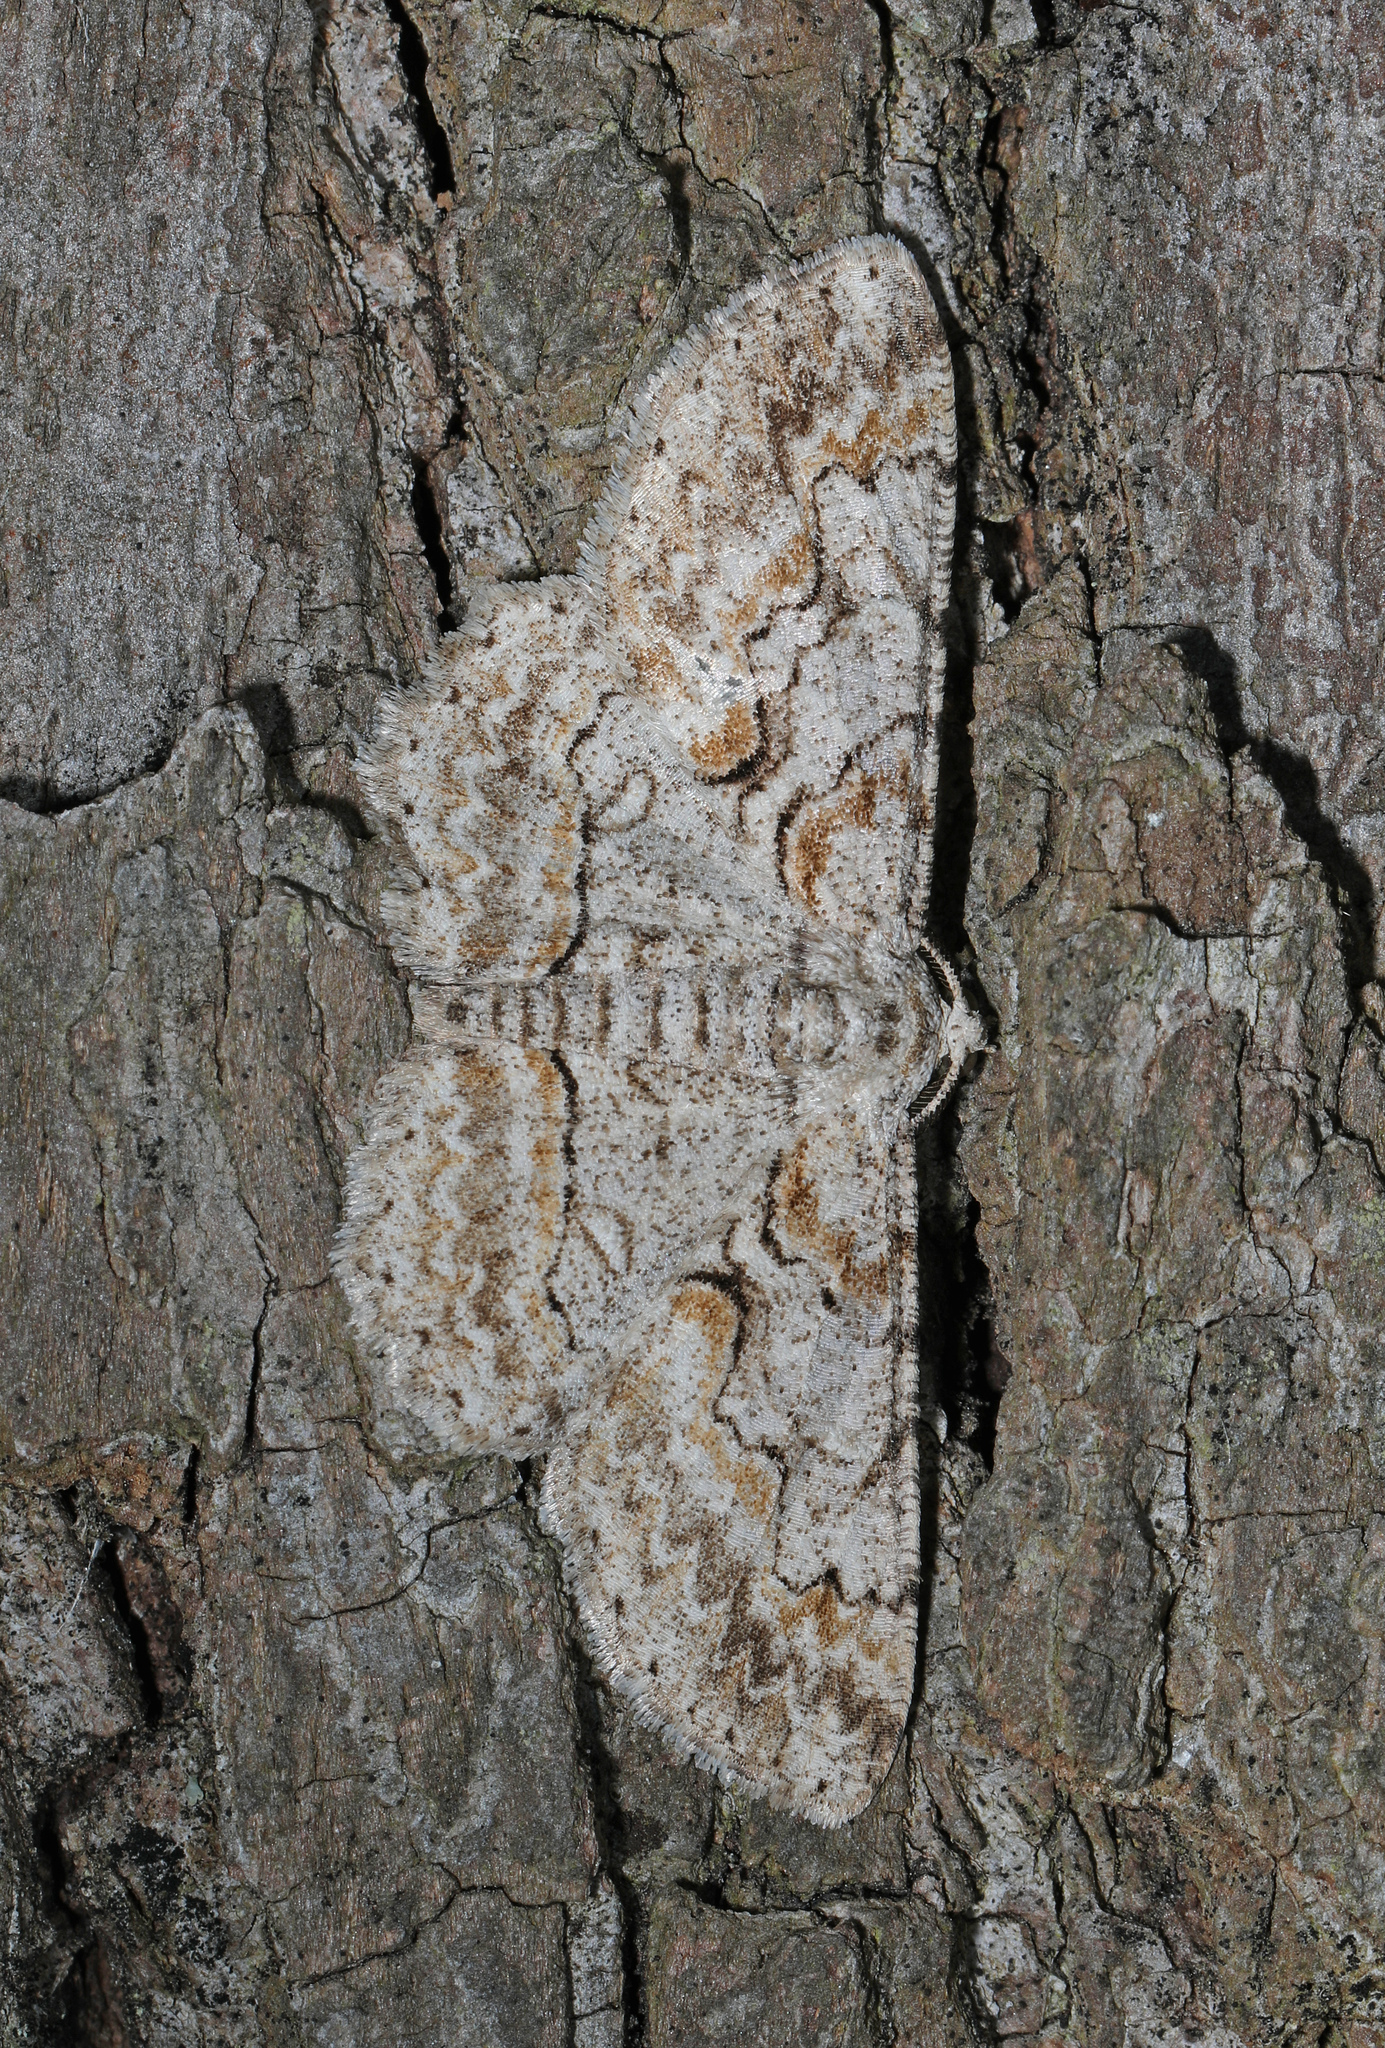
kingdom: Animalia
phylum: Arthropoda
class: Insecta
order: Lepidoptera
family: Geometridae
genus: Iridopsis
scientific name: Iridopsis defectaria
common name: Brown-shaded gray
